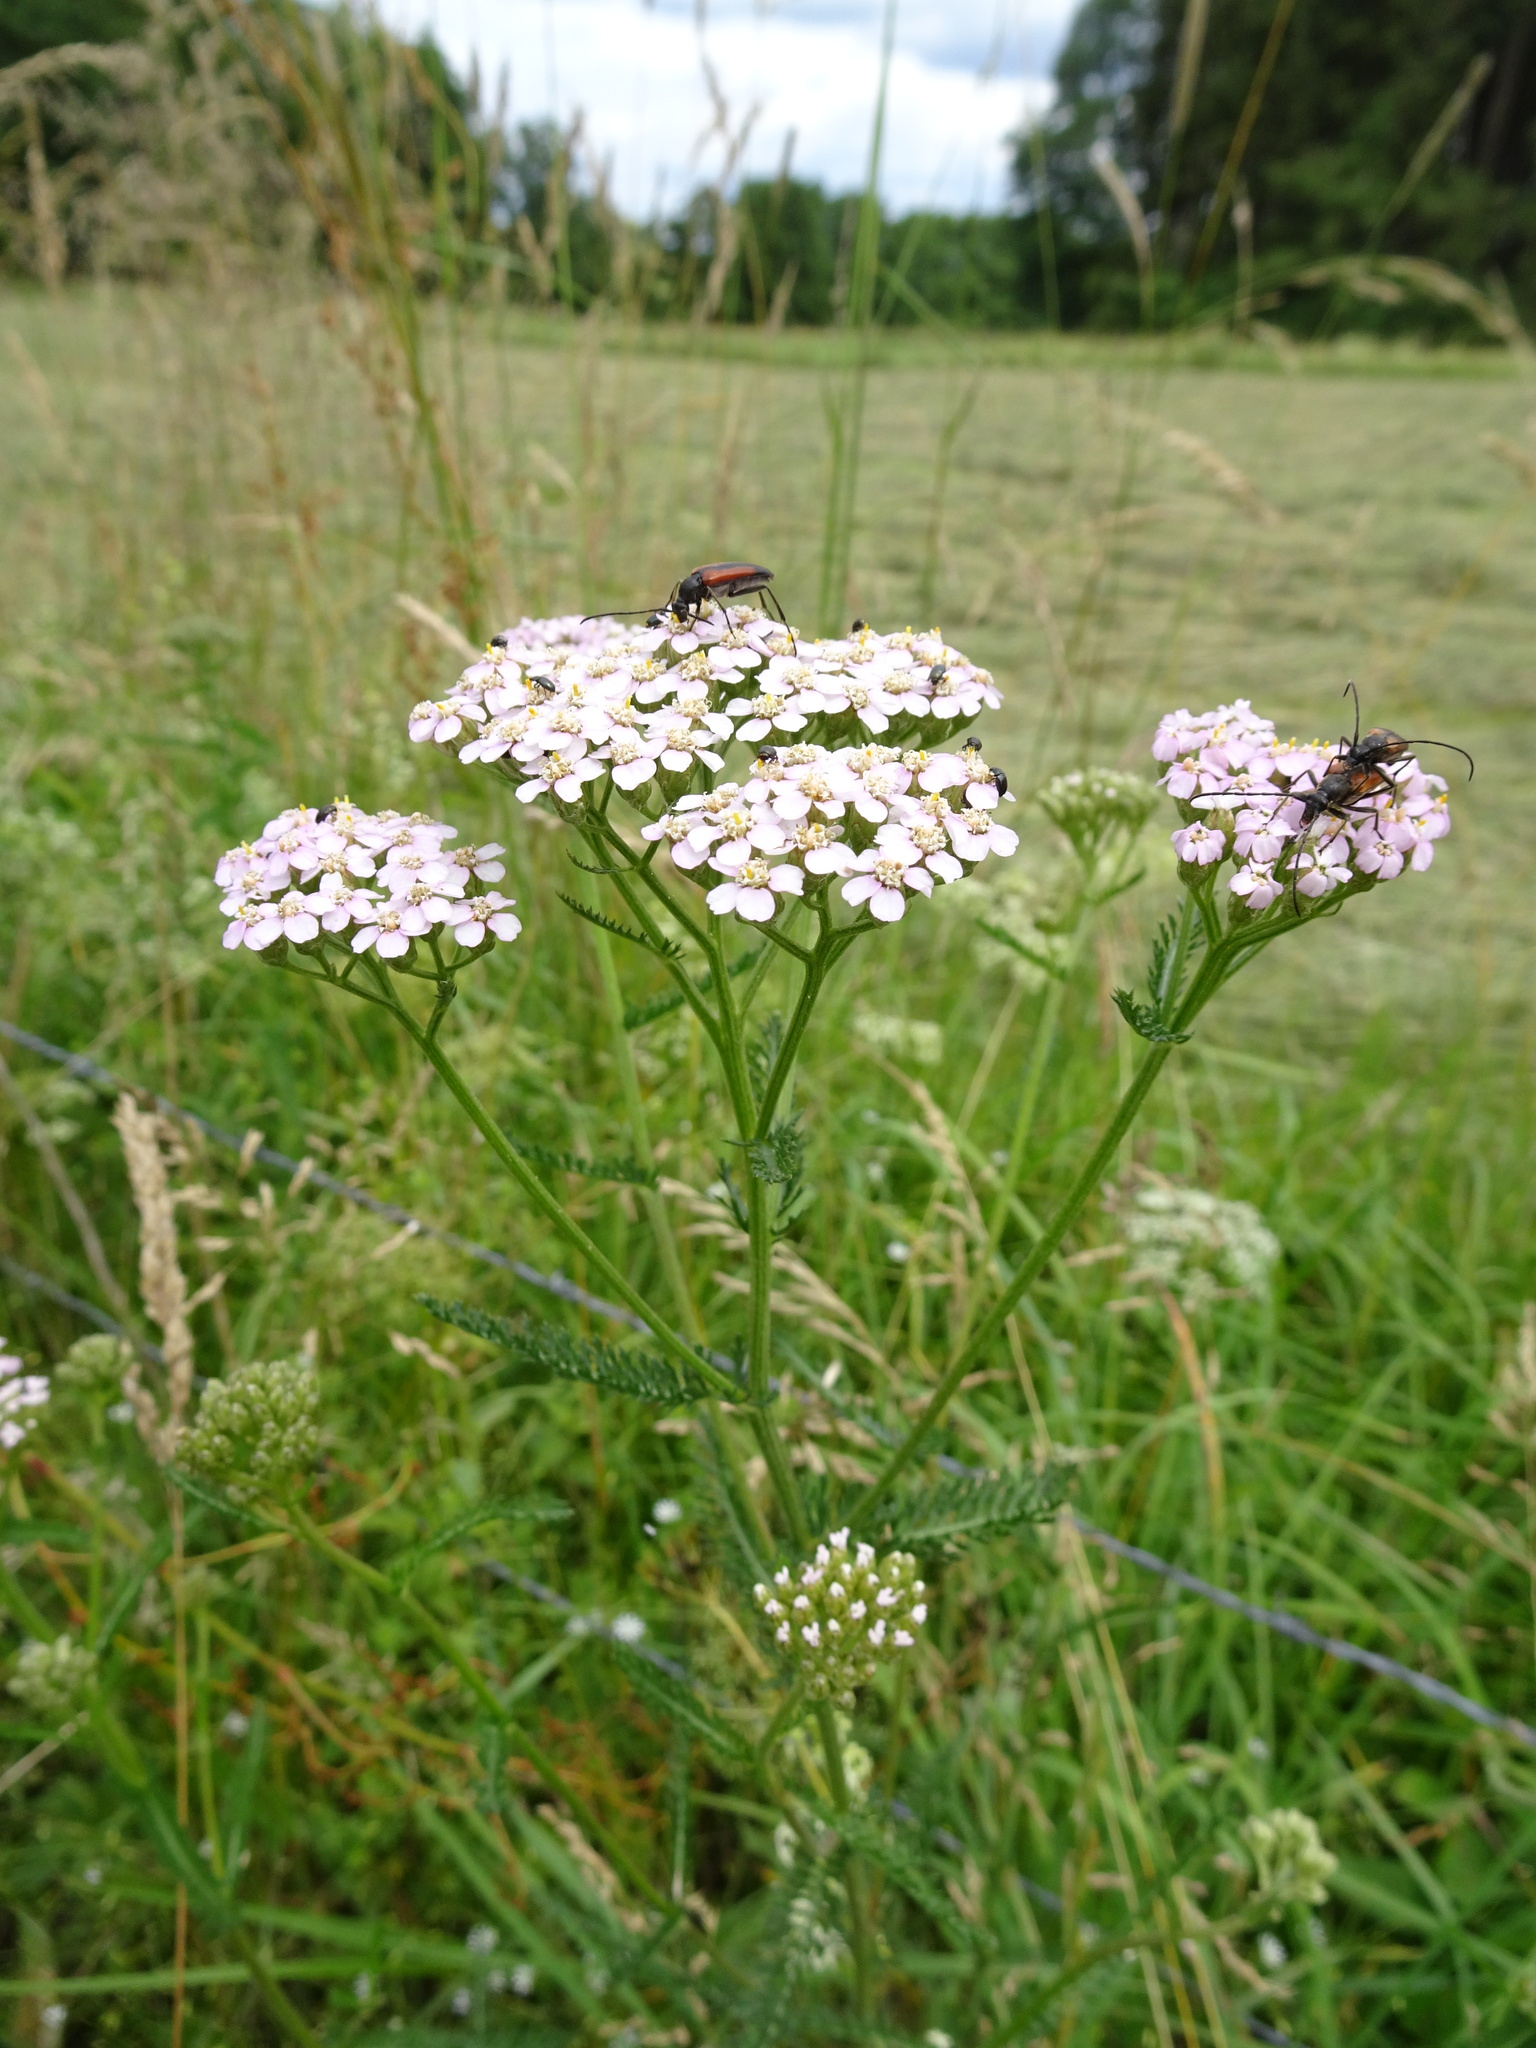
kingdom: Plantae
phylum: Tracheophyta
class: Magnoliopsida
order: Asterales
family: Asteraceae
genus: Achillea
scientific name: Achillea millefolium
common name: Yarrow
